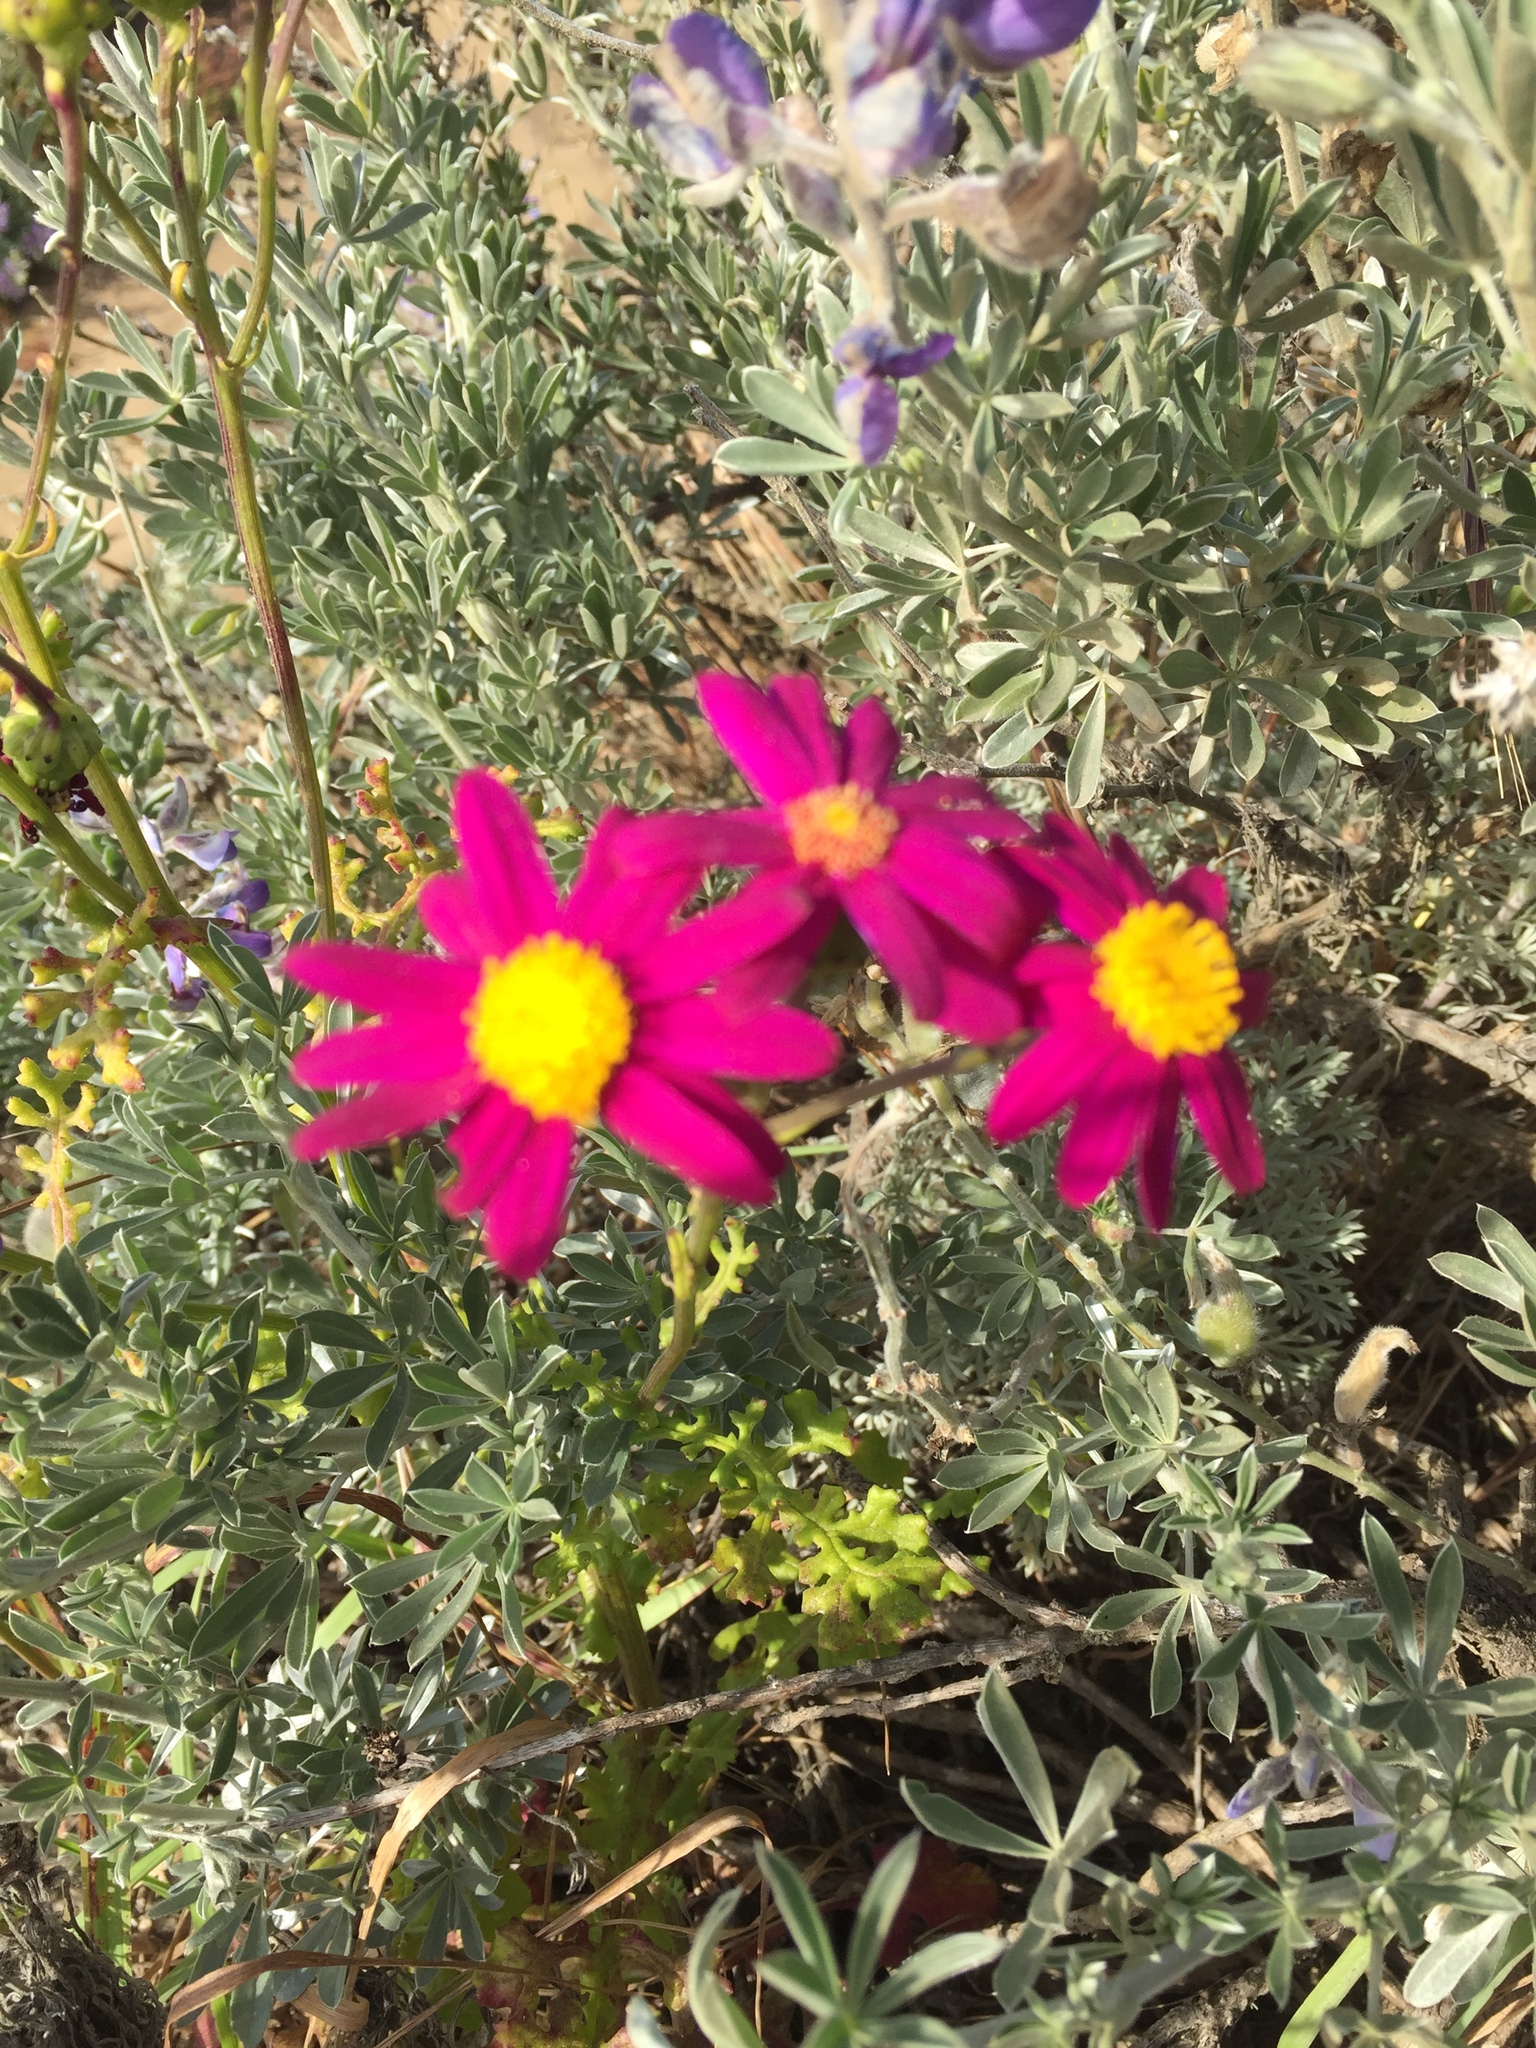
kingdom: Plantae
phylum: Tracheophyta
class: Magnoliopsida
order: Asterales
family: Asteraceae
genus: Senecio
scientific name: Senecio elegans
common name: Purple groundsel
